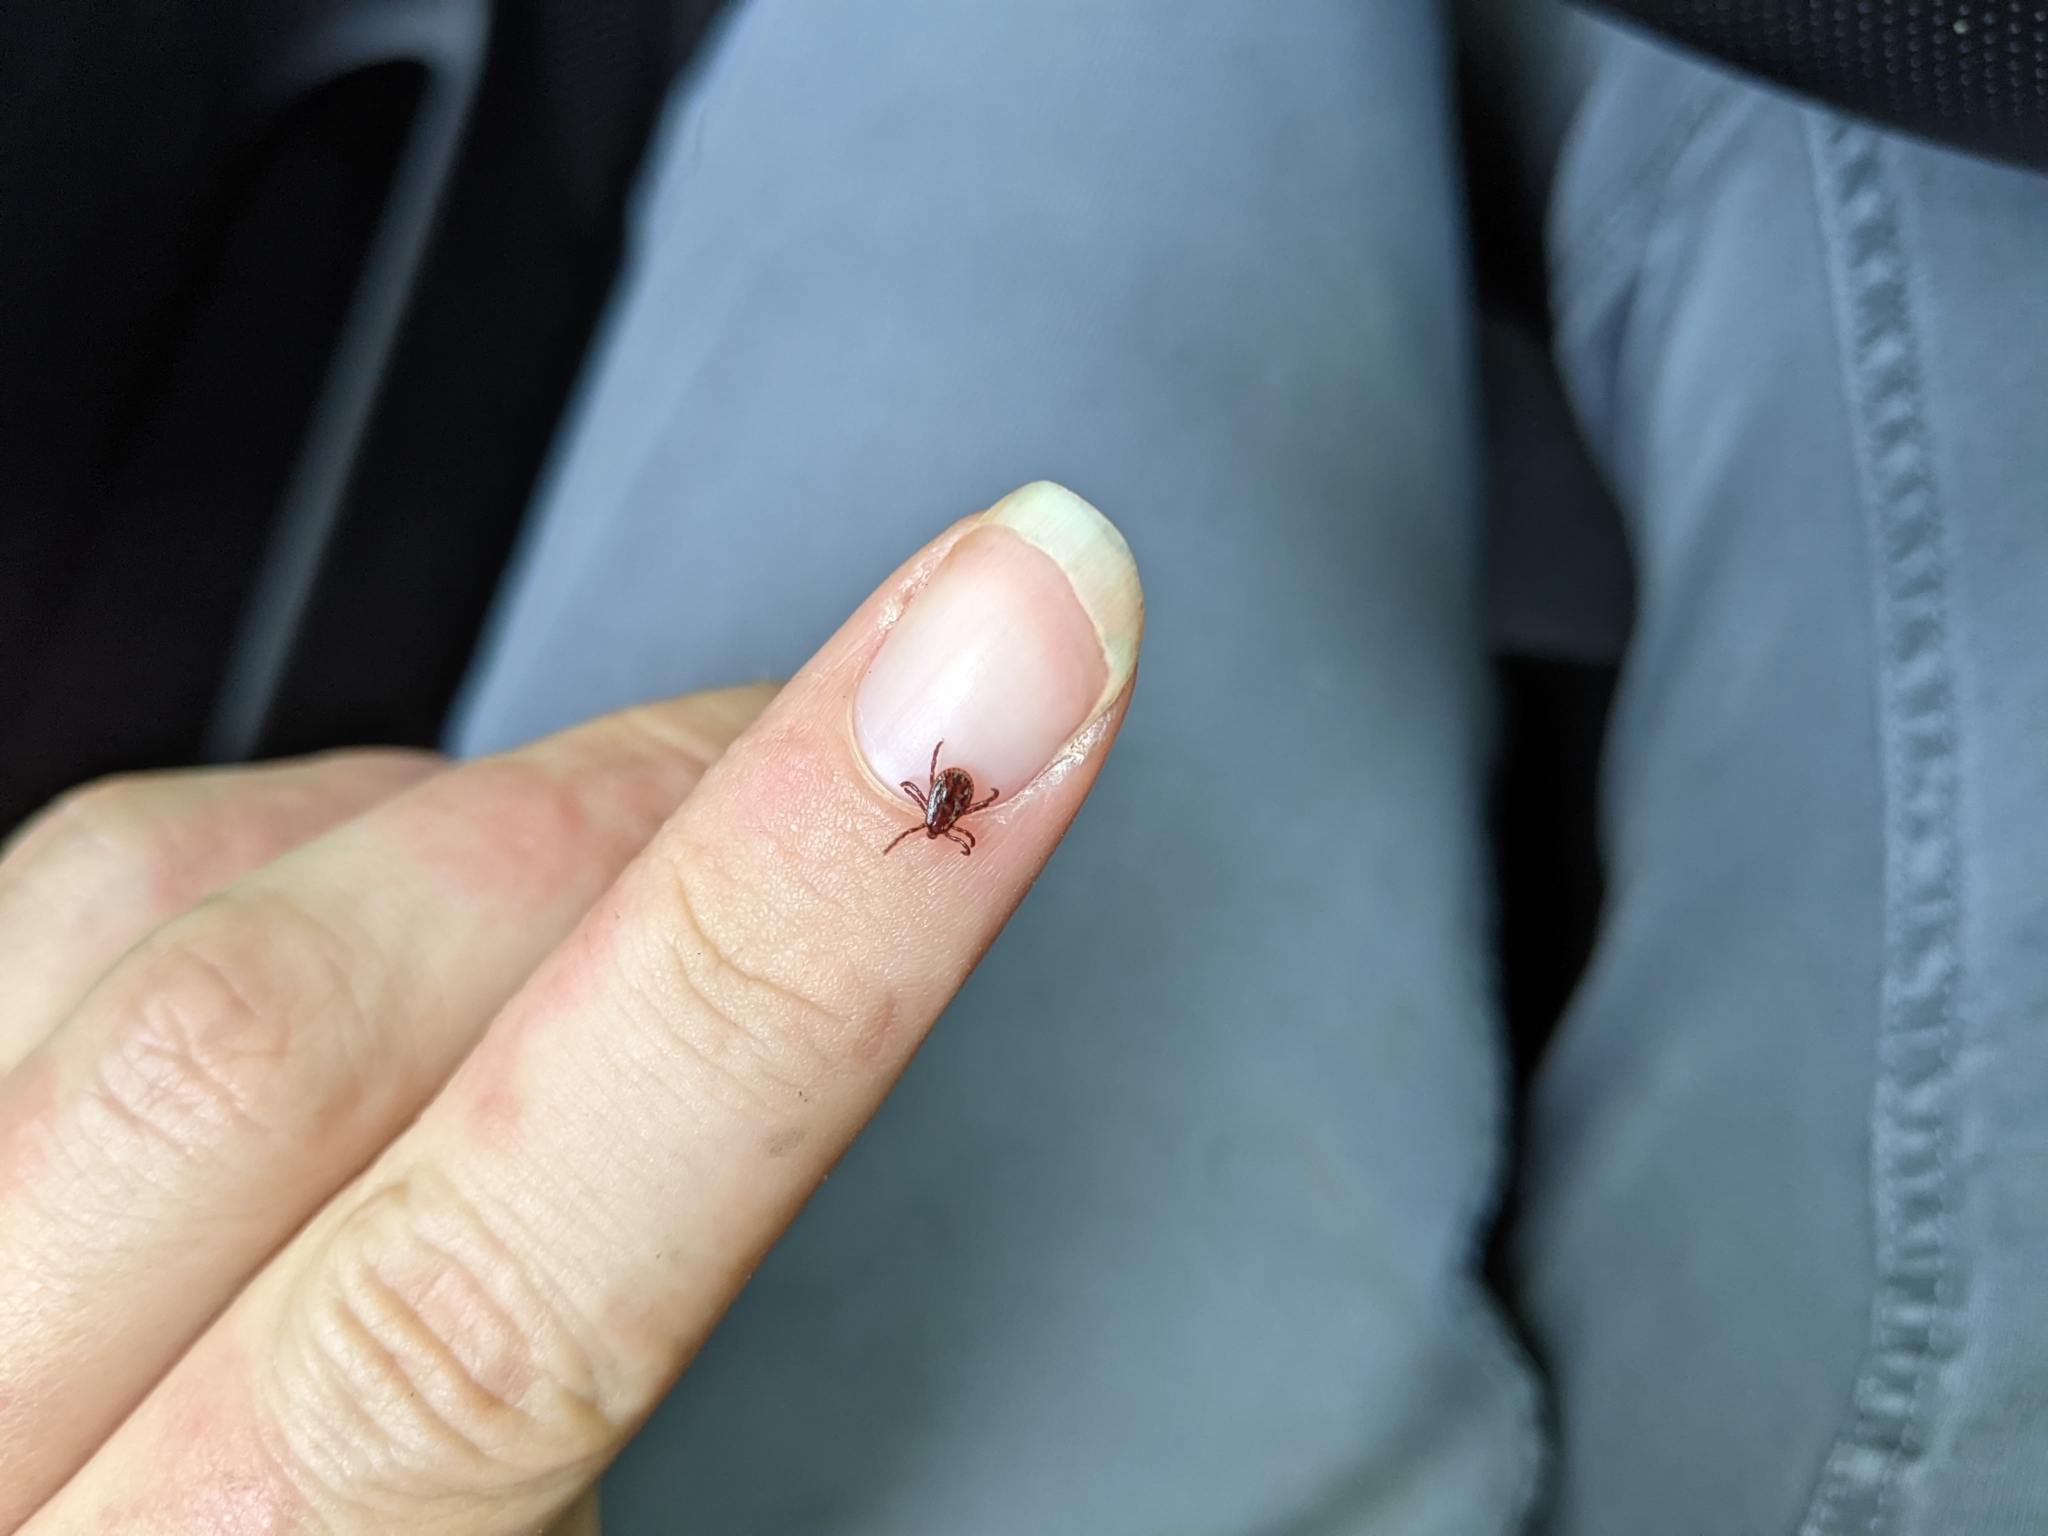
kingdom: Animalia
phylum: Arthropoda
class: Arachnida
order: Ixodida
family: Ixodidae
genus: Dermacentor
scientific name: Dermacentor variabilis
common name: American dog tick
